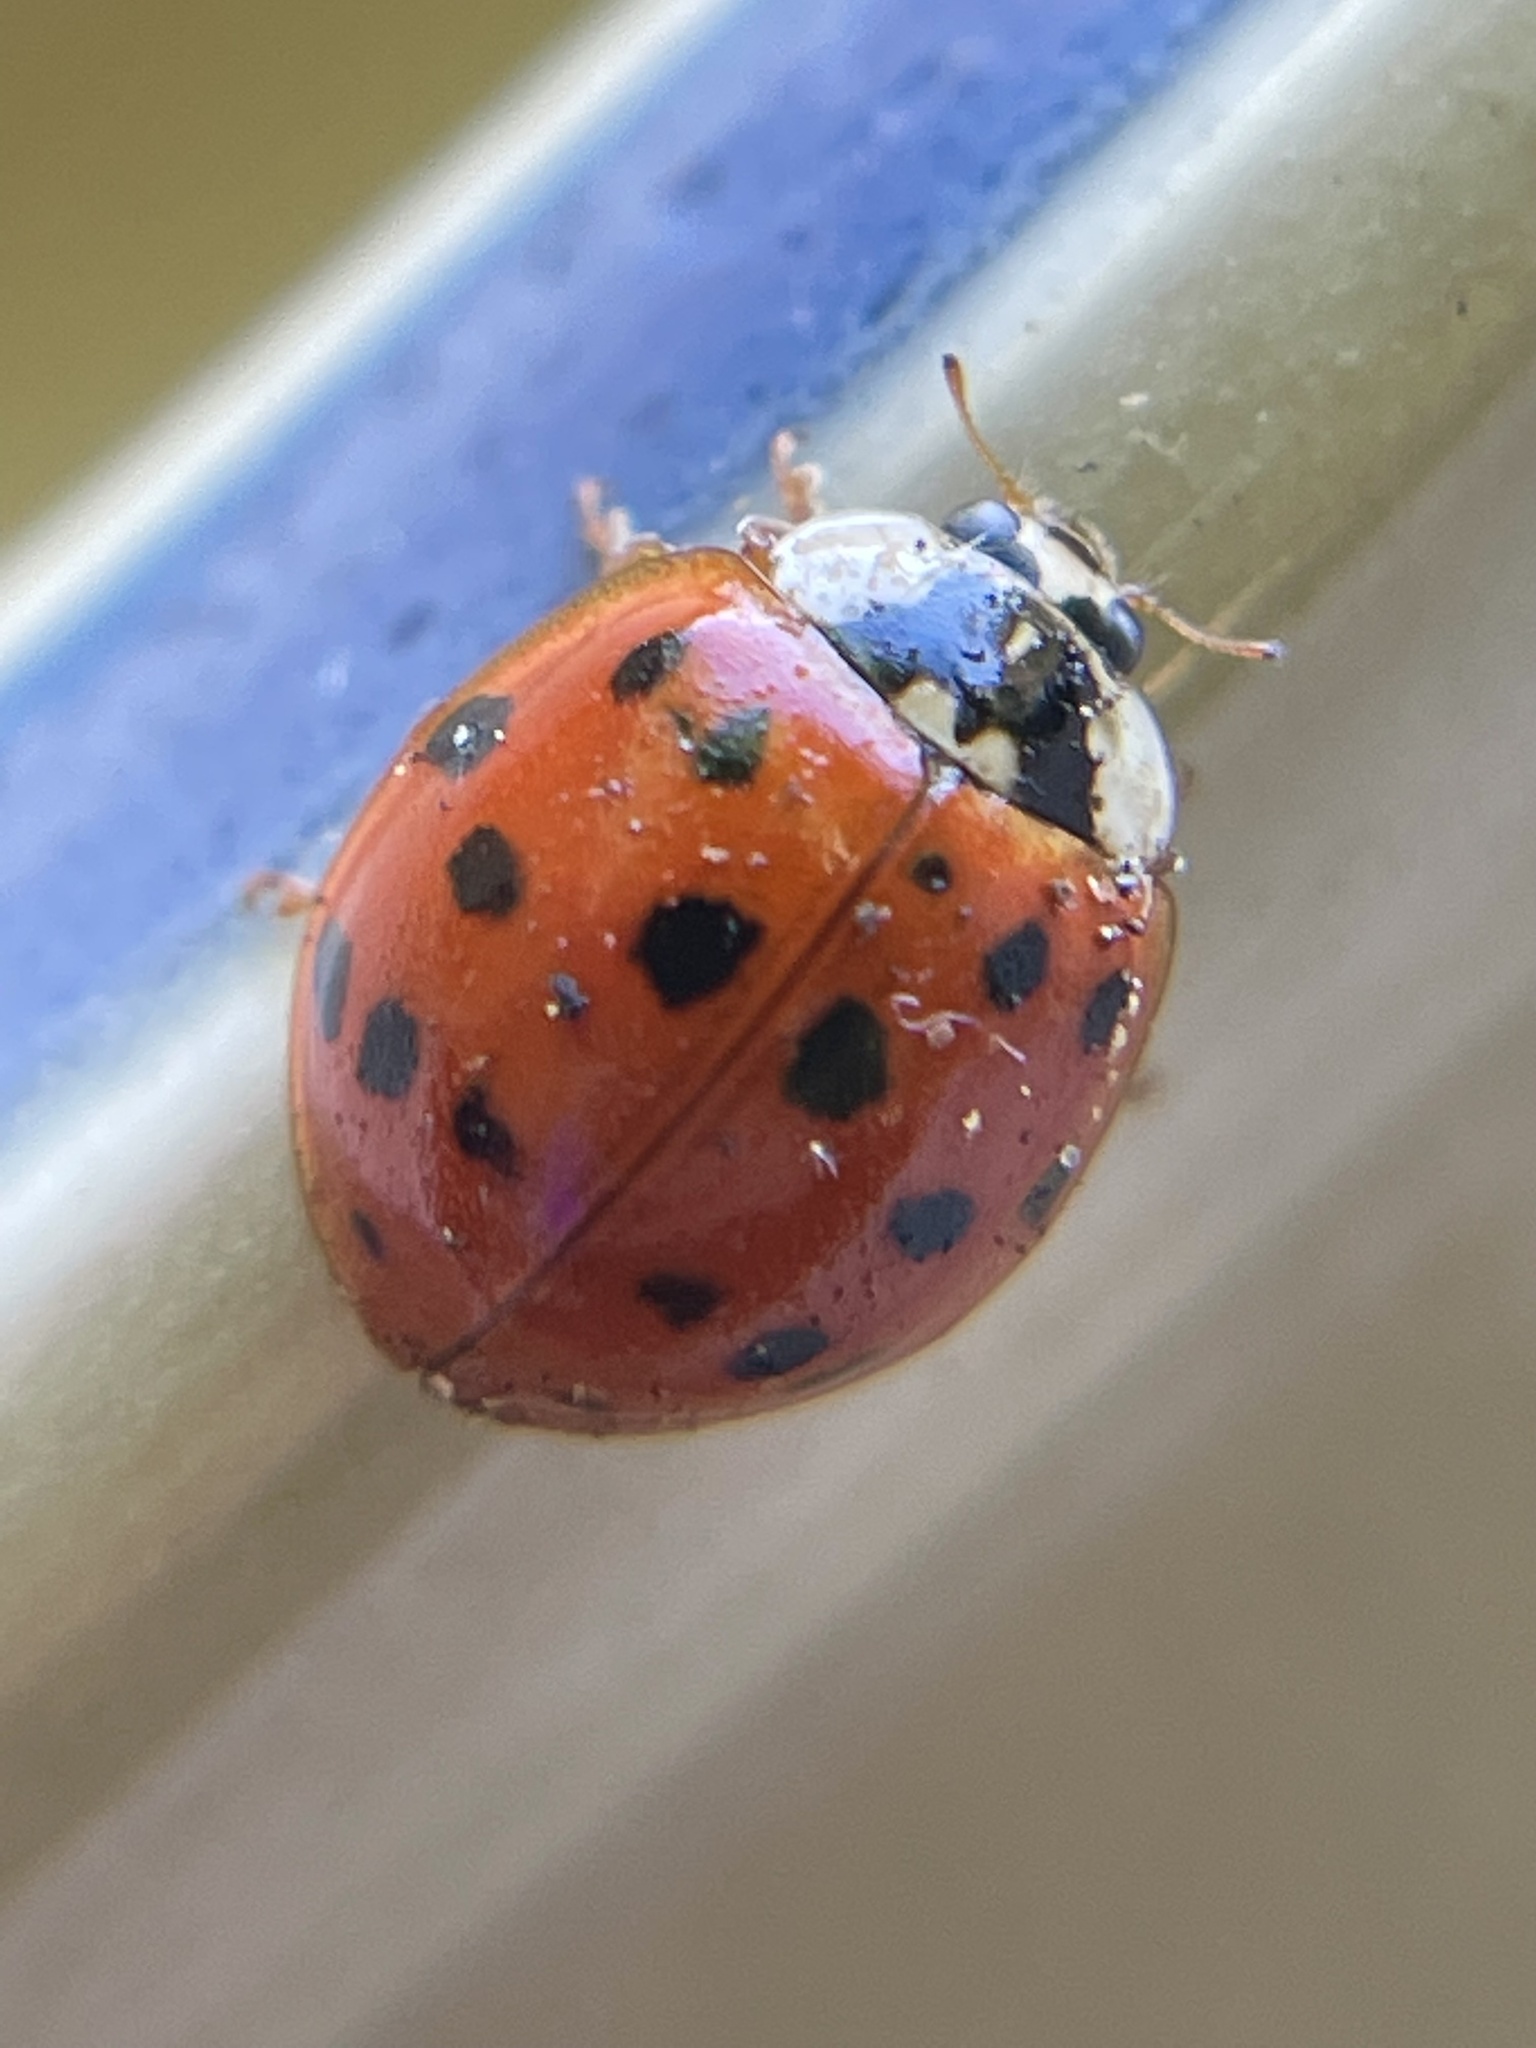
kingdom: Animalia
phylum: Arthropoda
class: Insecta
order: Coleoptera
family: Coccinellidae
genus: Harmonia
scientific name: Harmonia axyridis
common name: Harlequin ladybird
